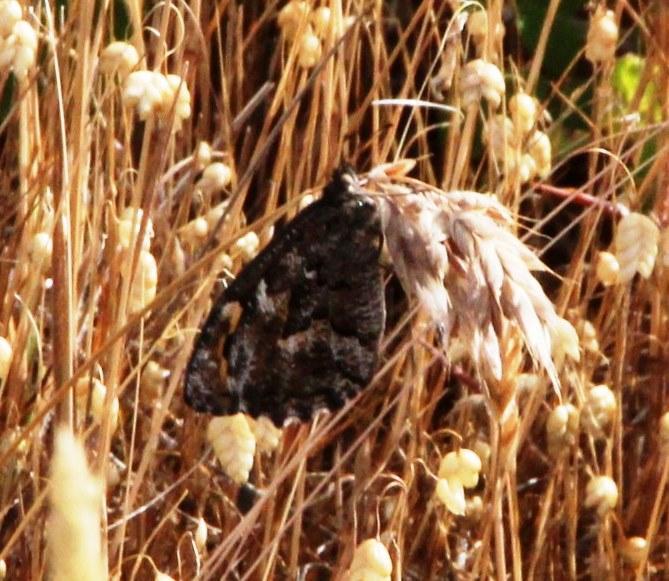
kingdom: Animalia
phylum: Arthropoda
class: Insecta
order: Lepidoptera
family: Nymphalidae
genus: Hipparchia
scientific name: Hipparchia algirica
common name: Mountain grayling
